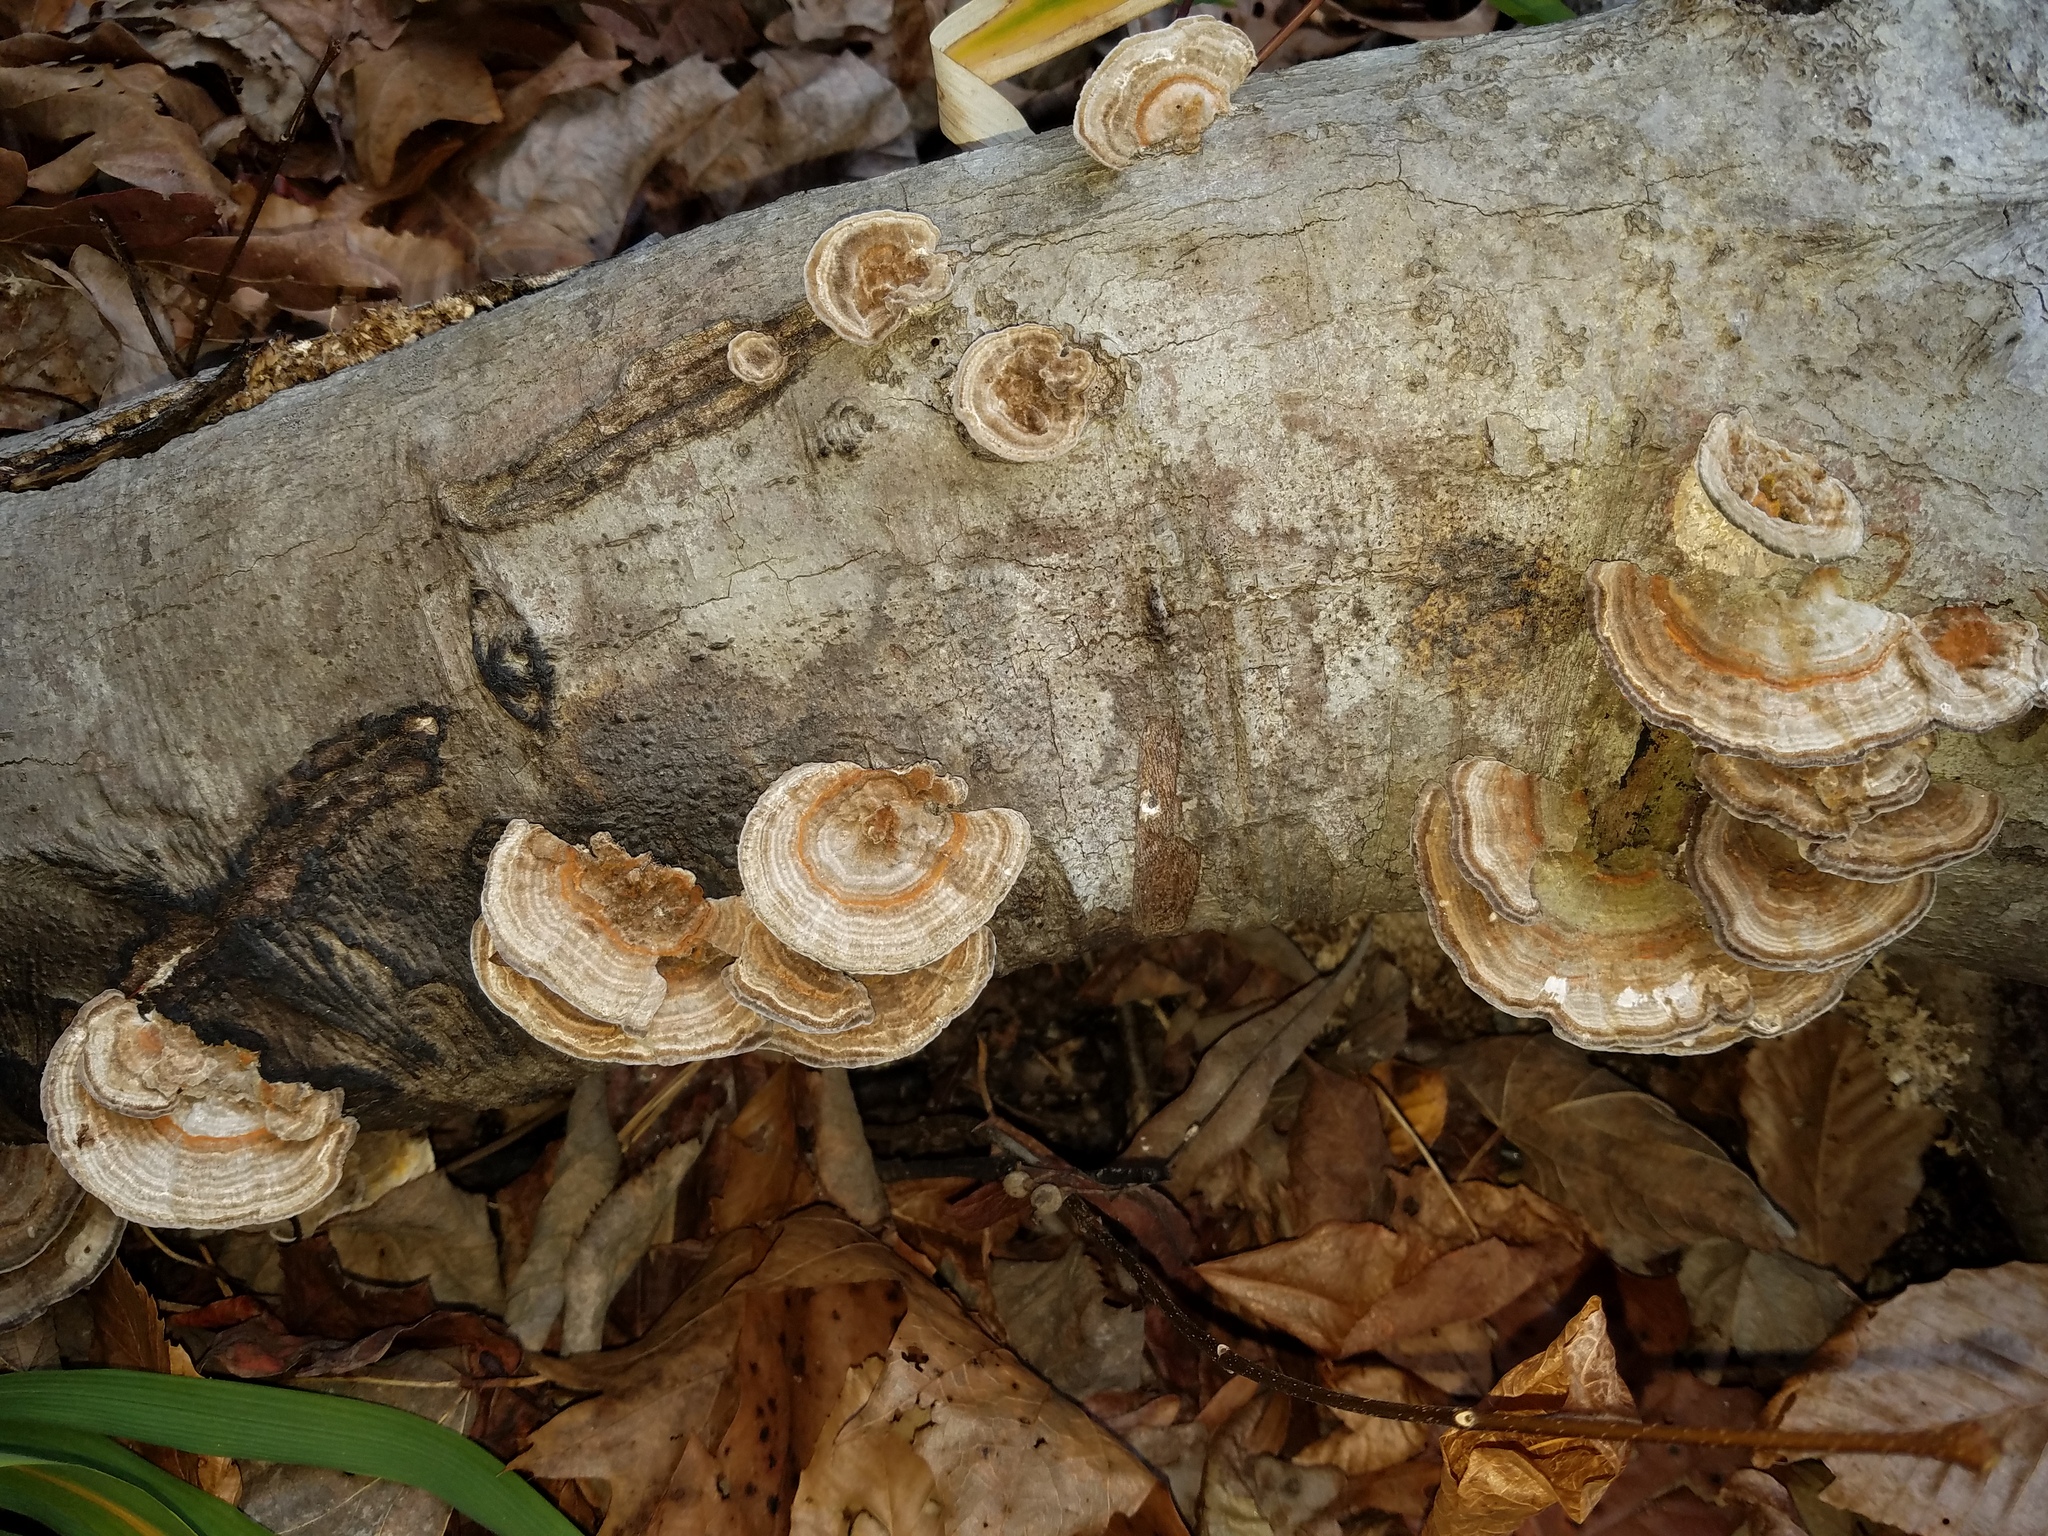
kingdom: Fungi
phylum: Basidiomycota
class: Agaricomycetes
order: Polyporales
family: Polyporaceae
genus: Lenzites
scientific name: Lenzites betulinus
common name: Birch mazegill
